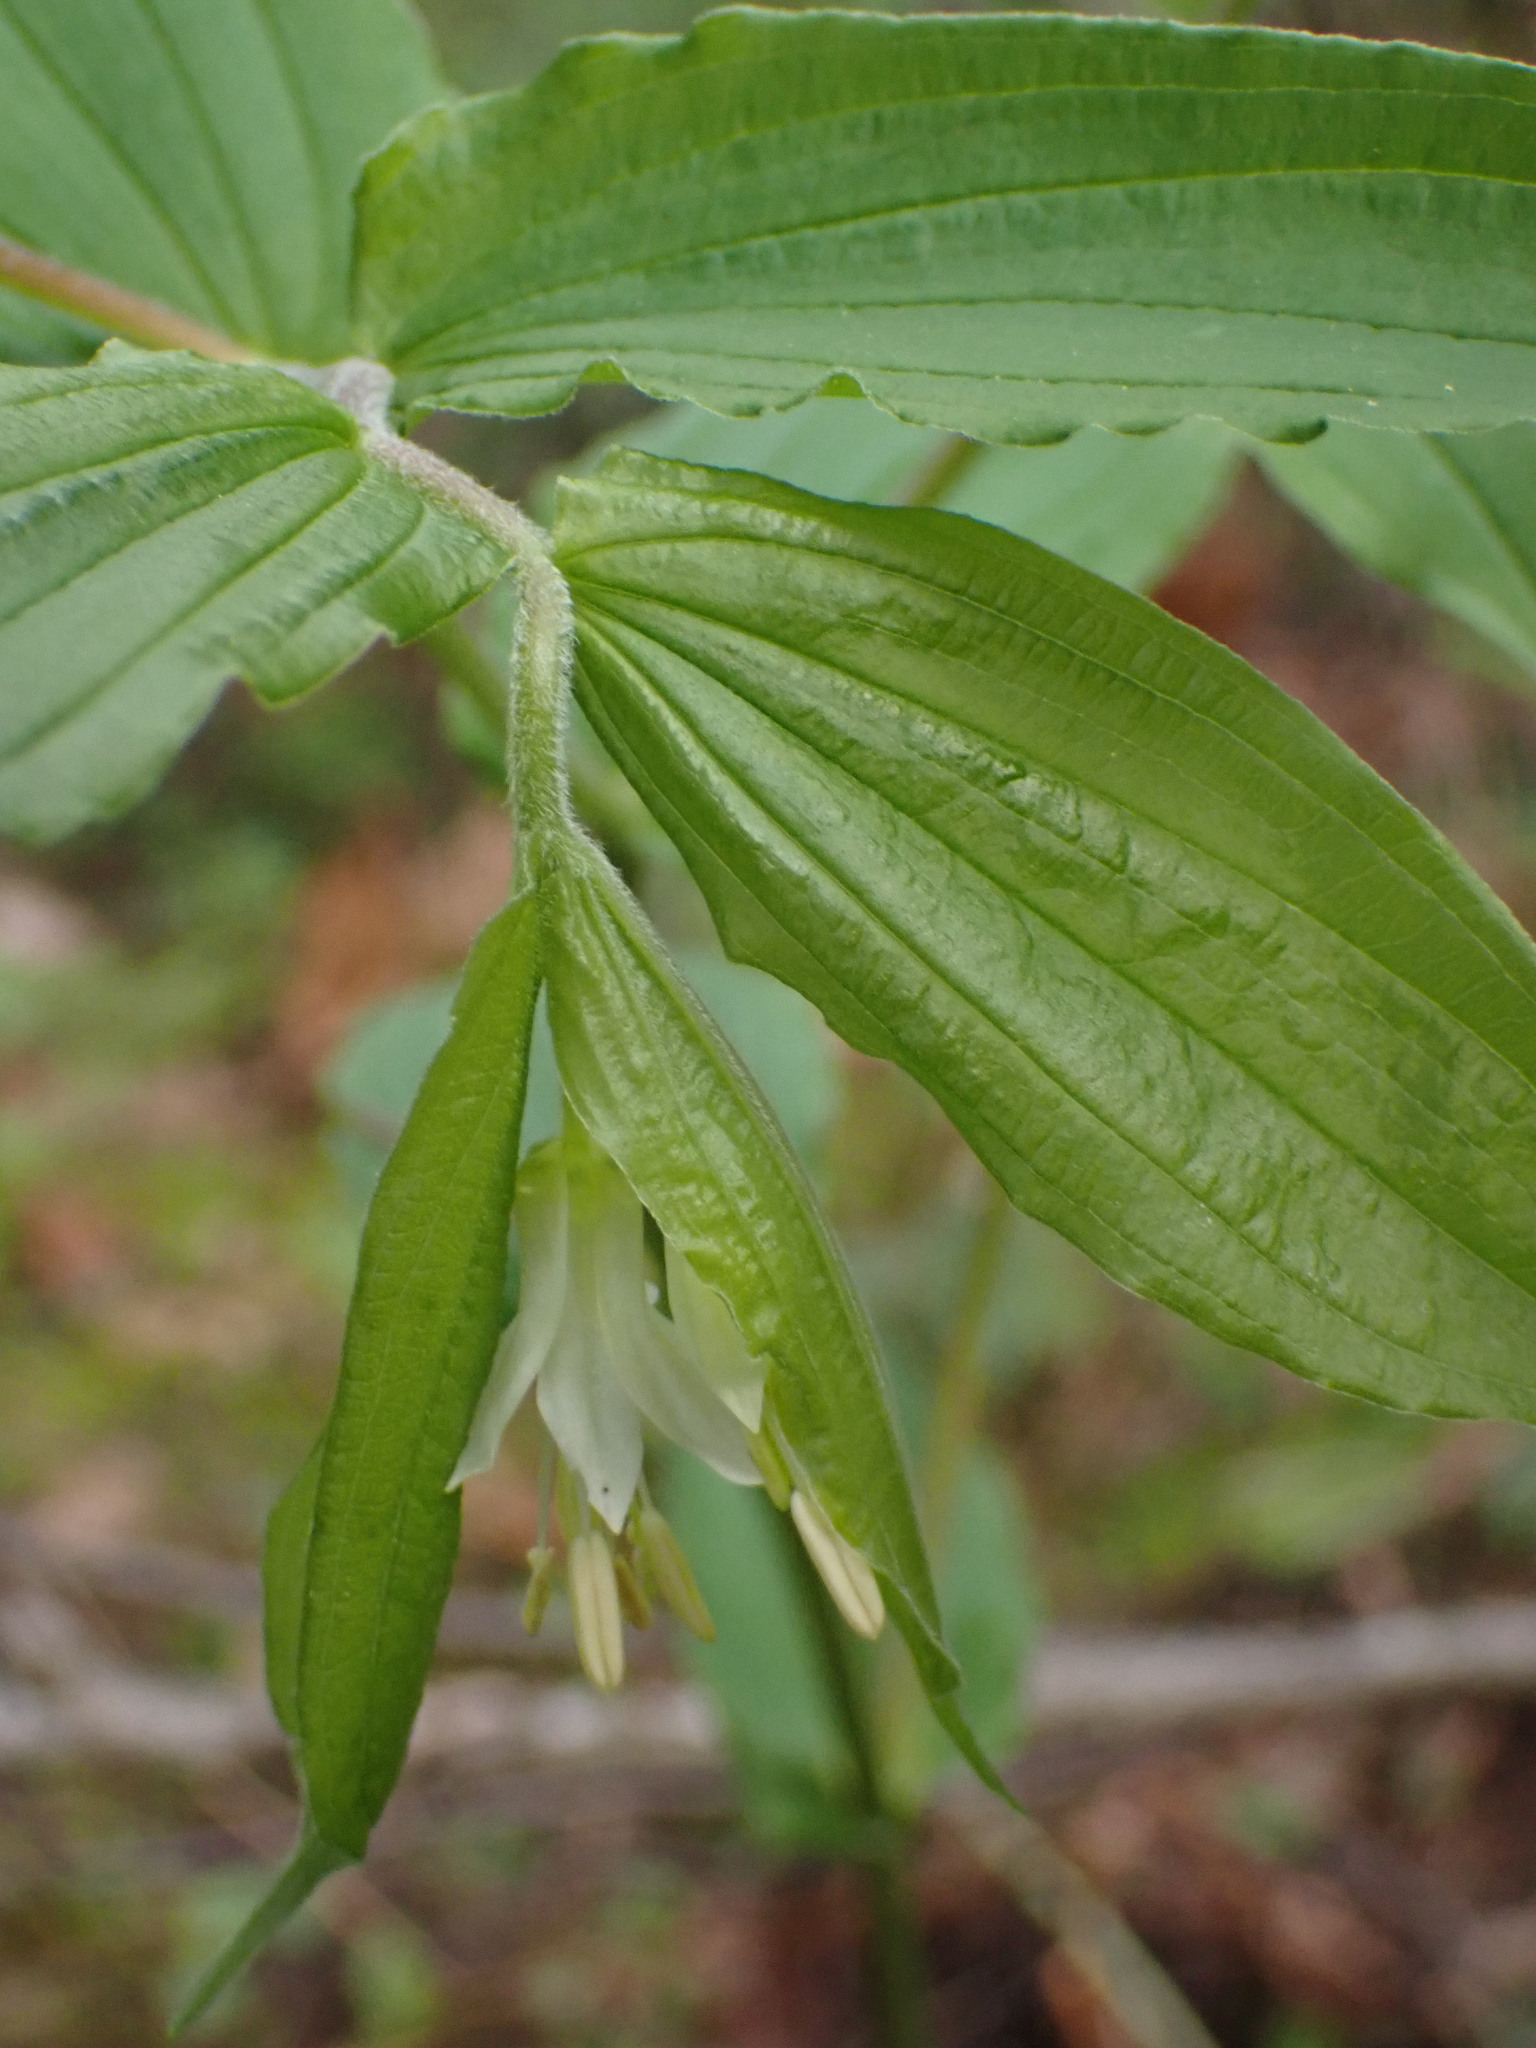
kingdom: Plantae
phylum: Tracheophyta
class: Liliopsida
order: Liliales
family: Liliaceae
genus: Prosartes
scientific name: Prosartes hookeri
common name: Fairy-bells
